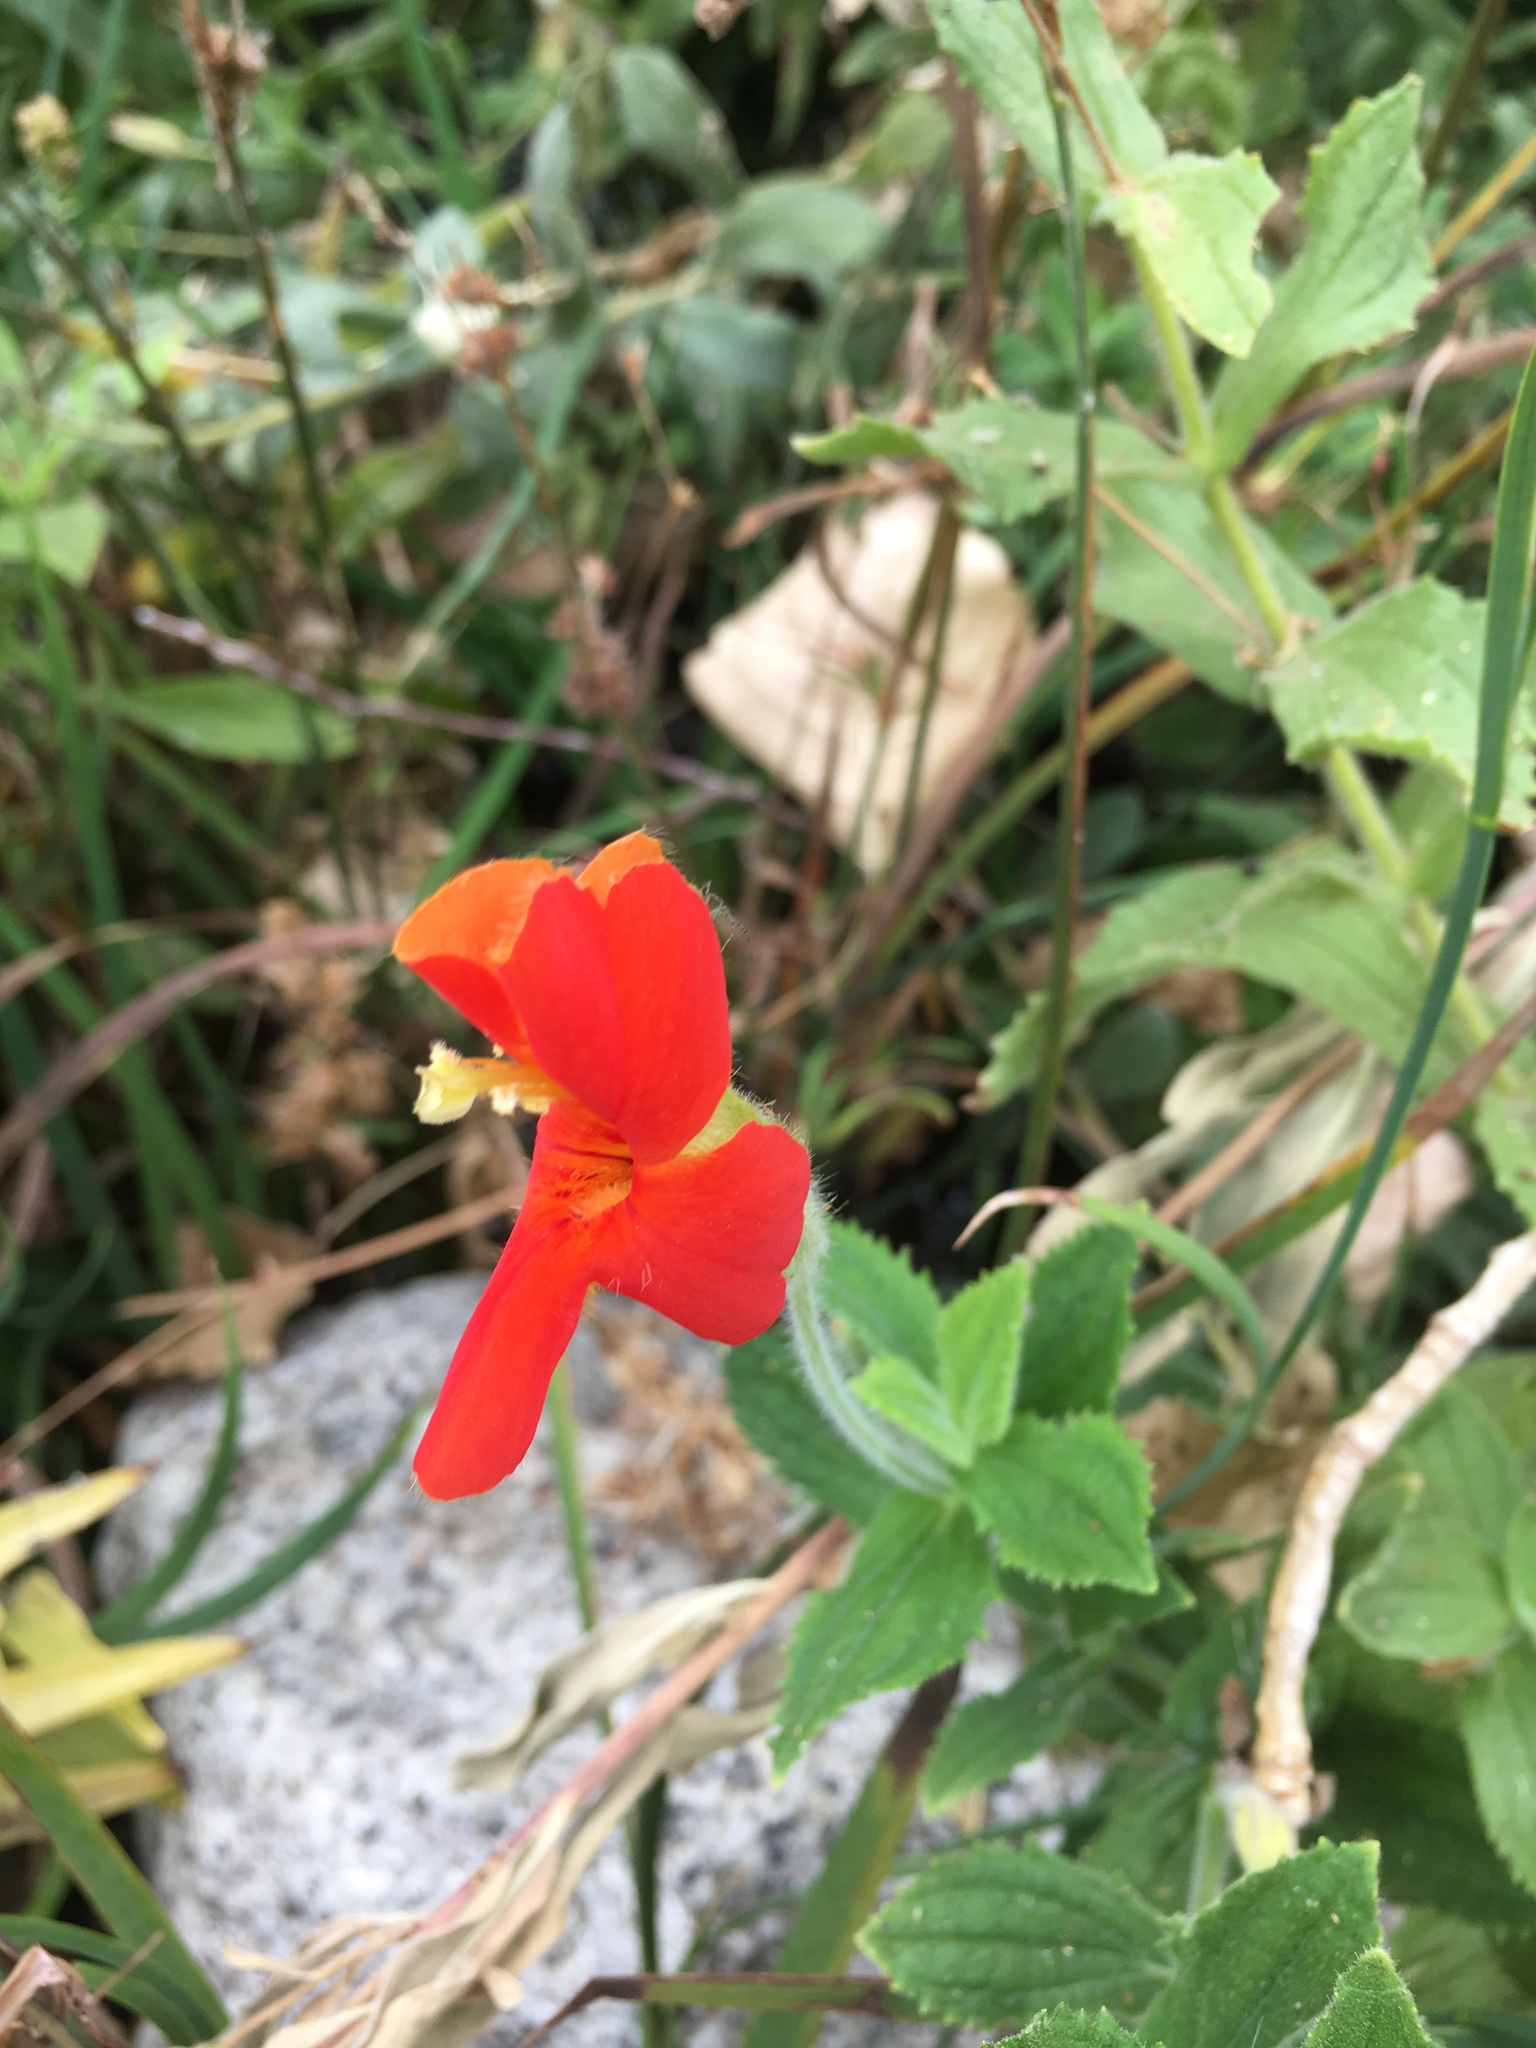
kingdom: Plantae
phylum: Tracheophyta
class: Magnoliopsida
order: Lamiales
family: Phrymaceae
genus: Erythranthe
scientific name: Erythranthe cardinalis
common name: Scarlet monkey-flower
